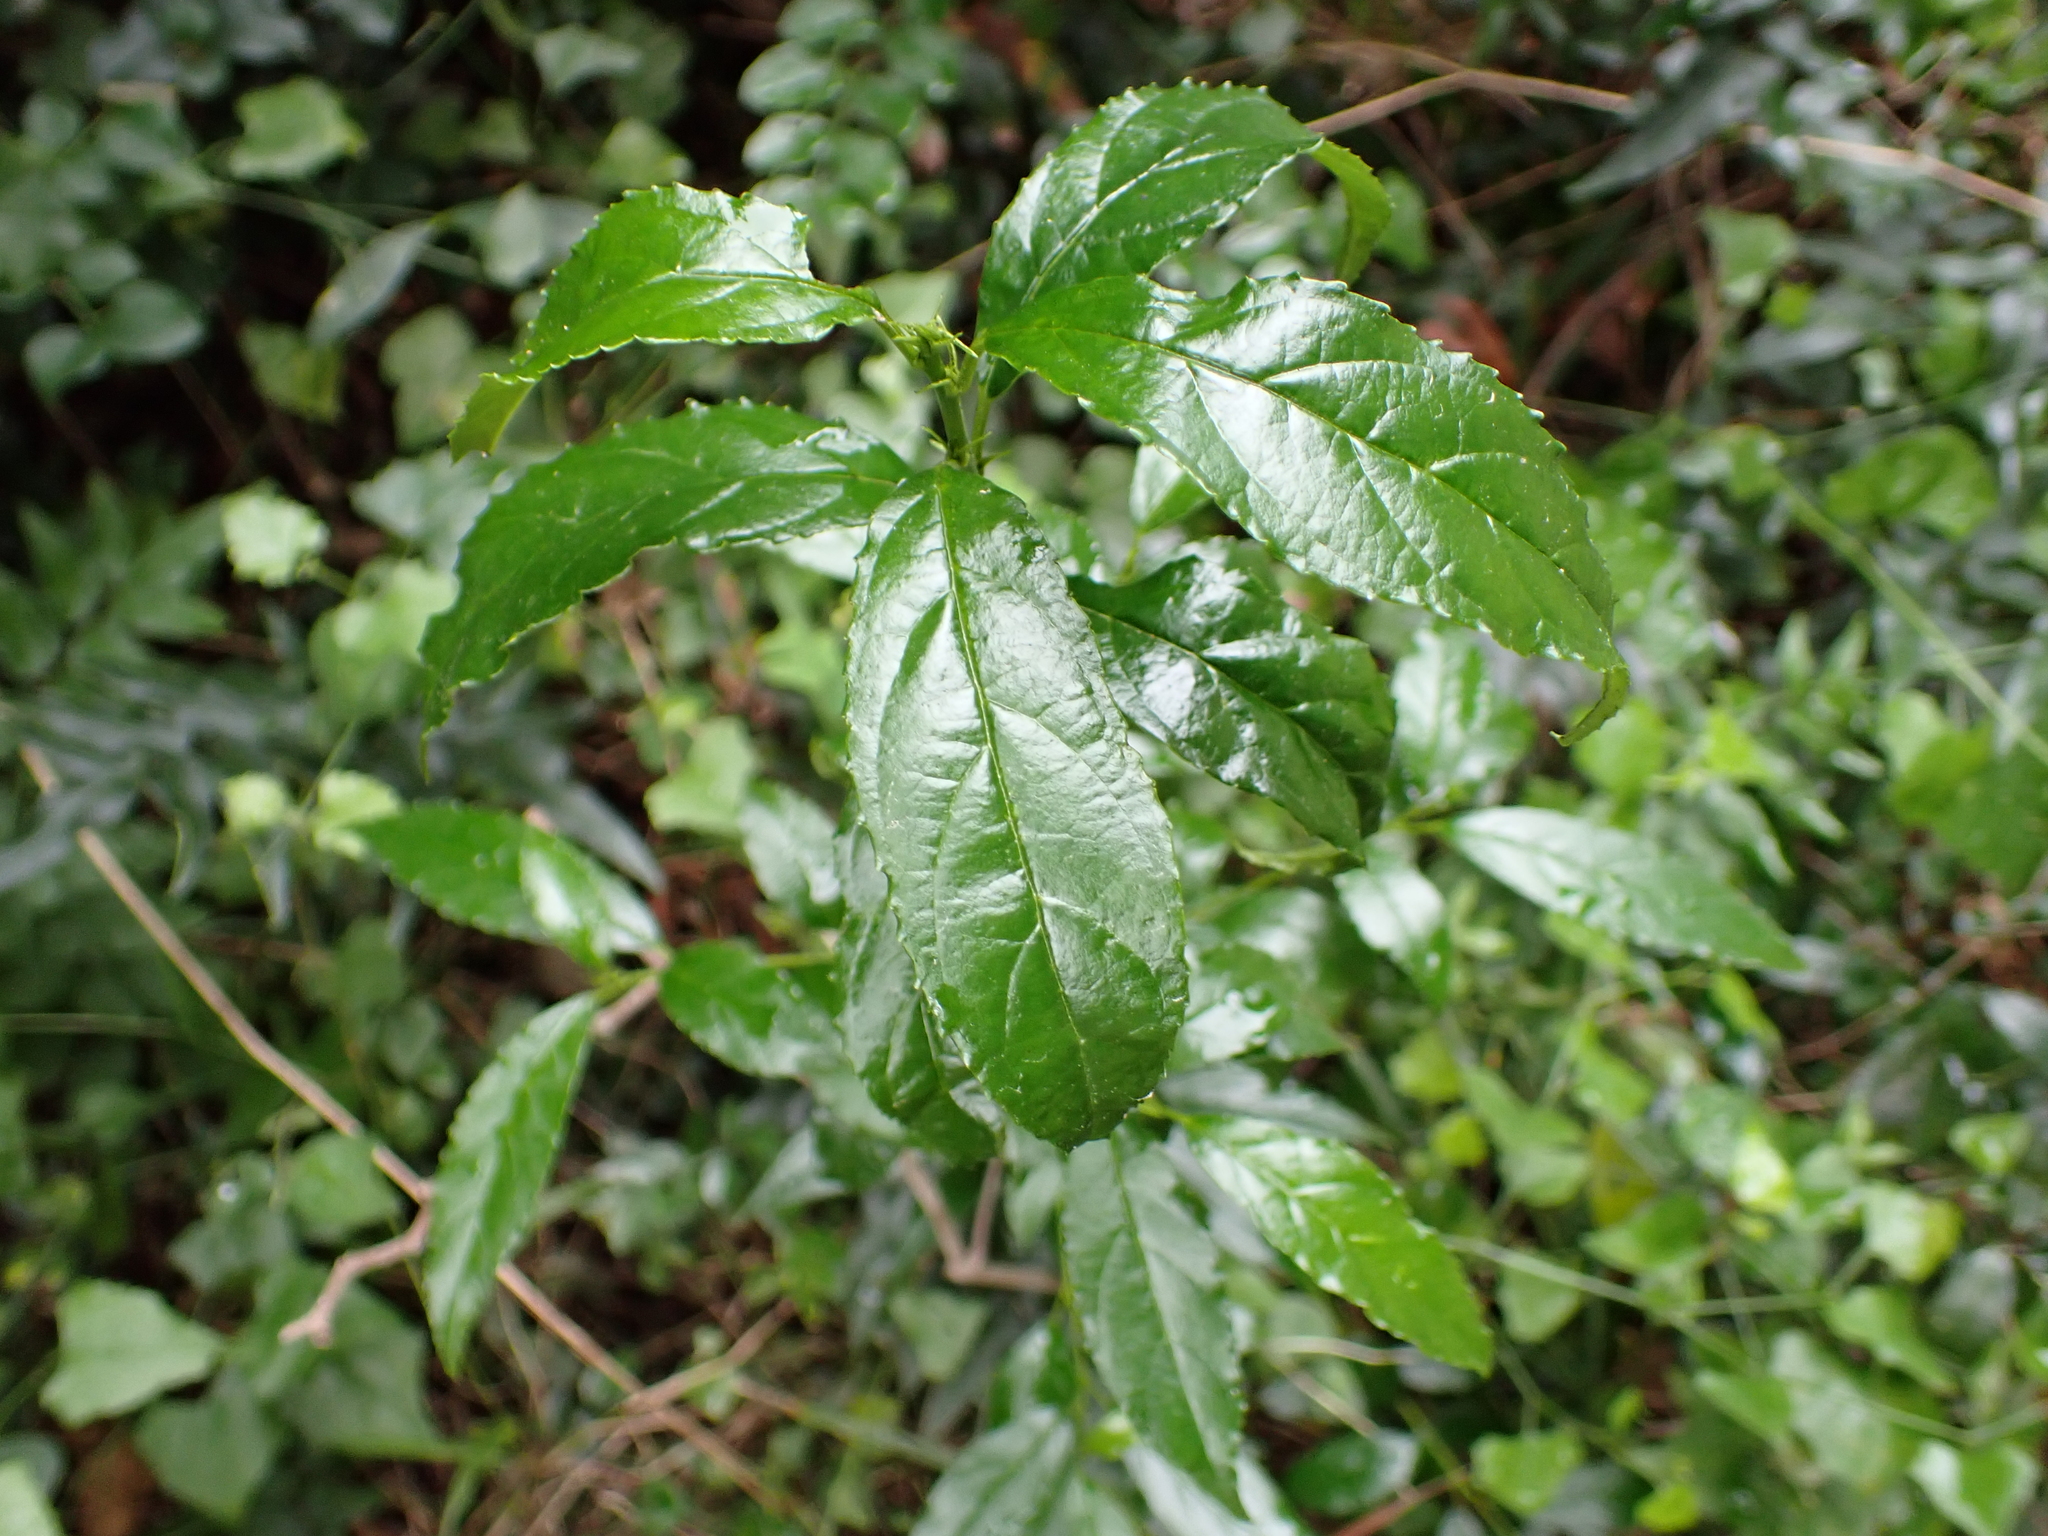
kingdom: Plantae
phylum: Tracheophyta
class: Magnoliopsida
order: Rosales
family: Rhamnaceae
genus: Rhamnus
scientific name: Rhamnus prinoides
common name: Dogwood
